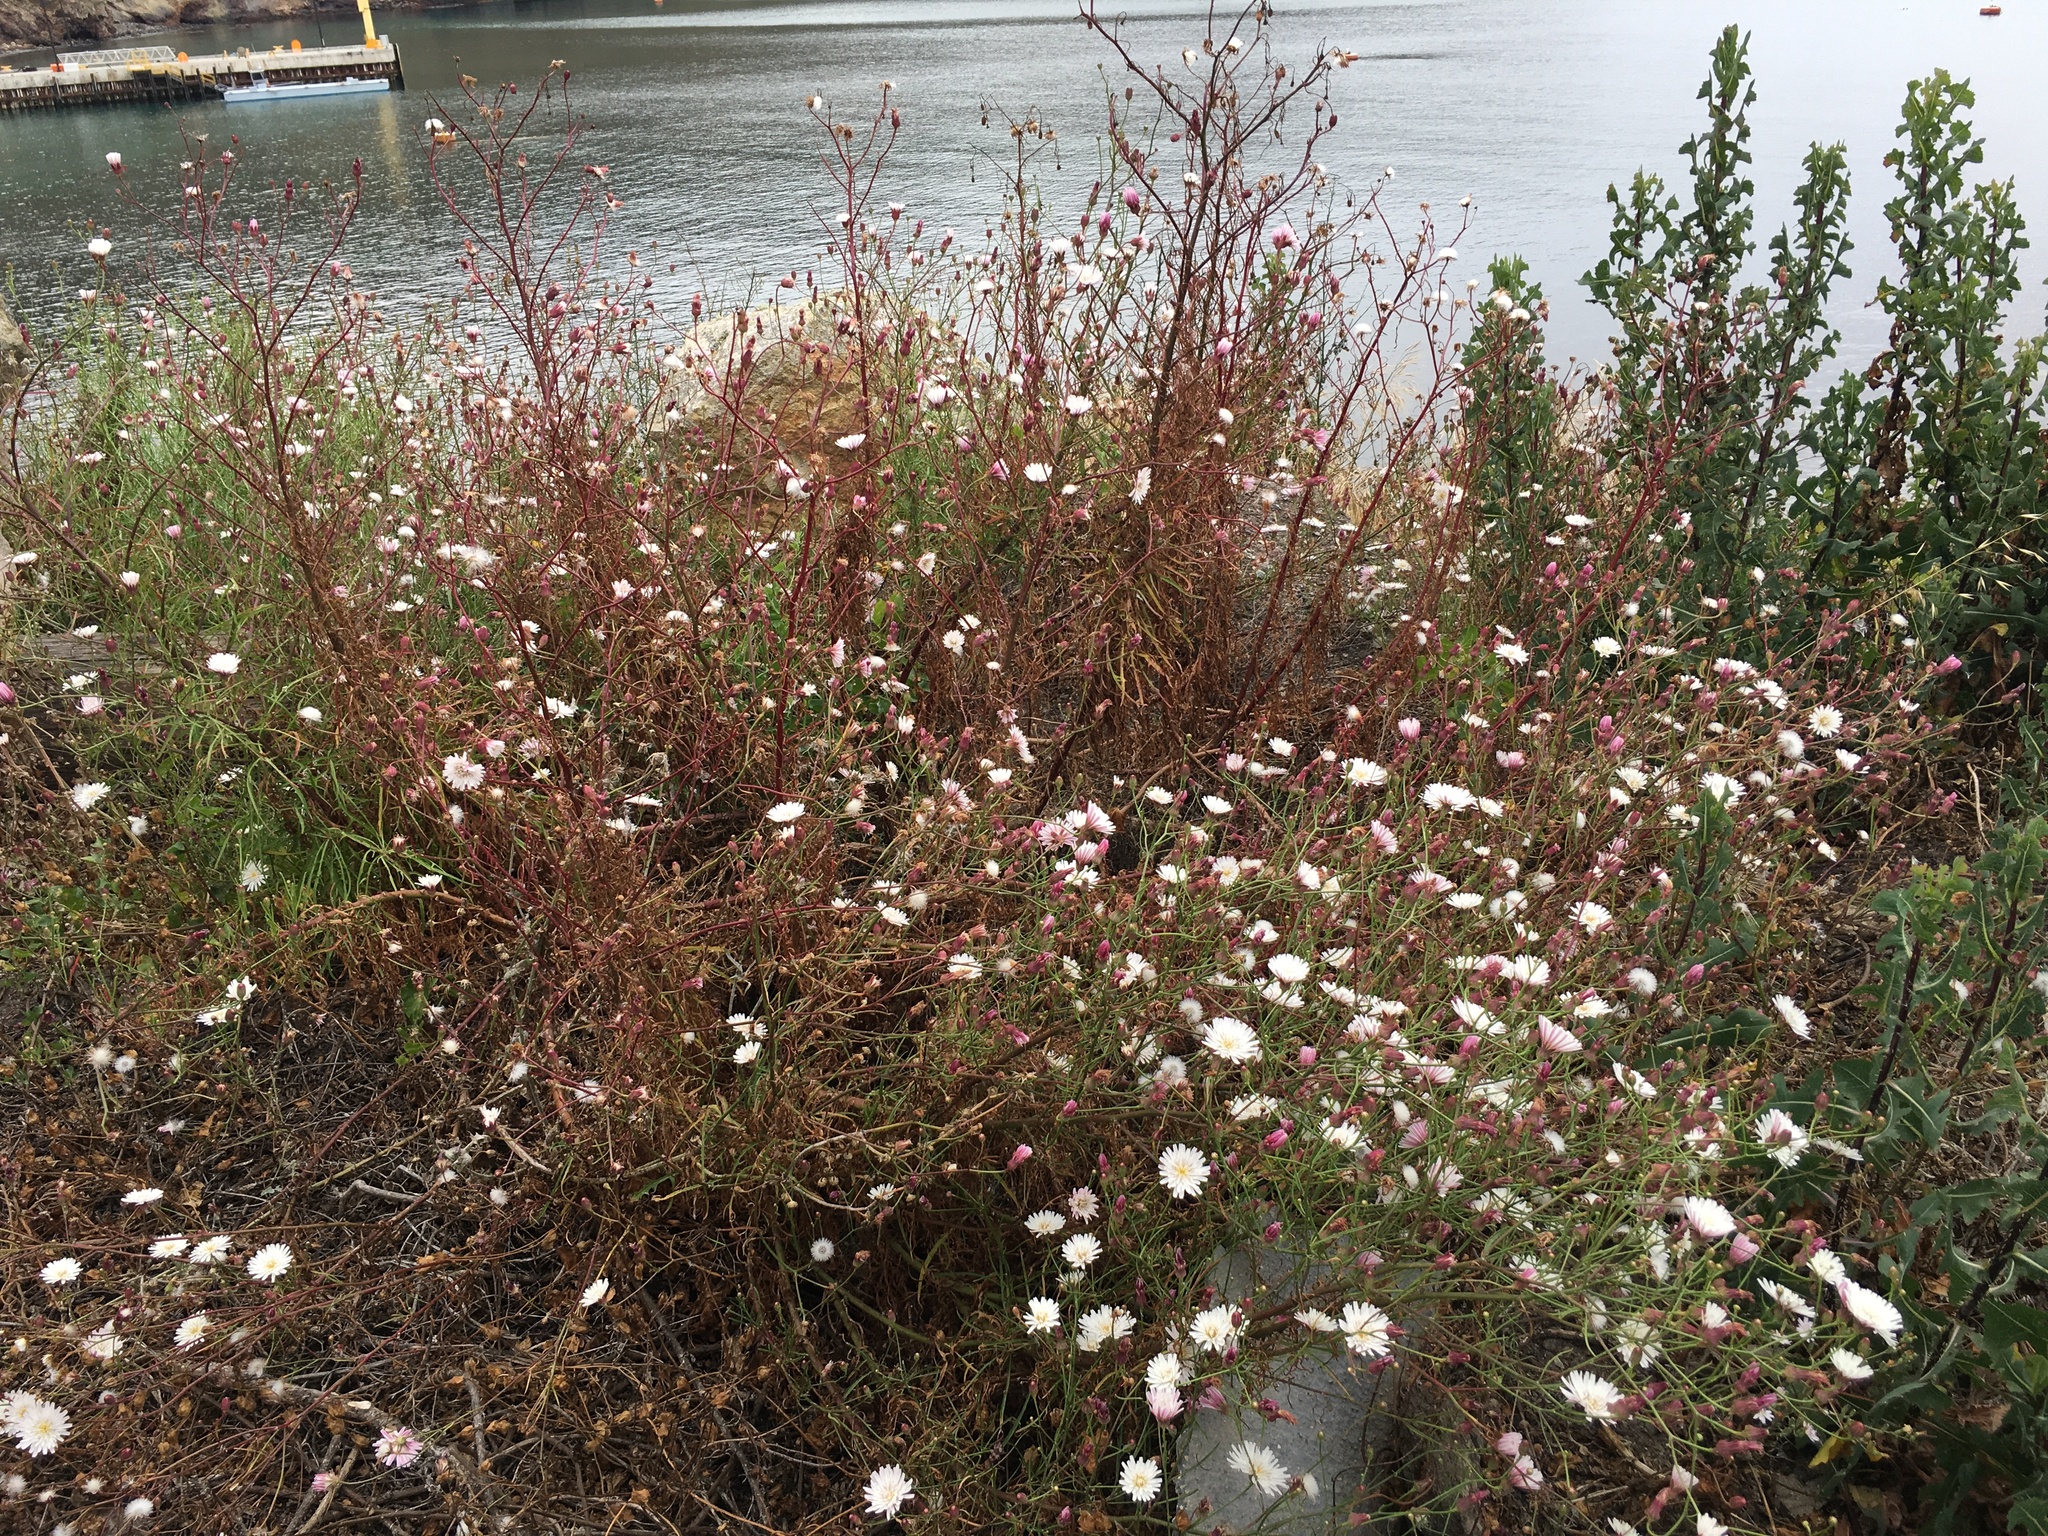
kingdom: Plantae
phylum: Tracheophyta
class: Magnoliopsida
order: Asterales
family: Asteraceae
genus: Malacothrix
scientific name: Malacothrix saxatilis
